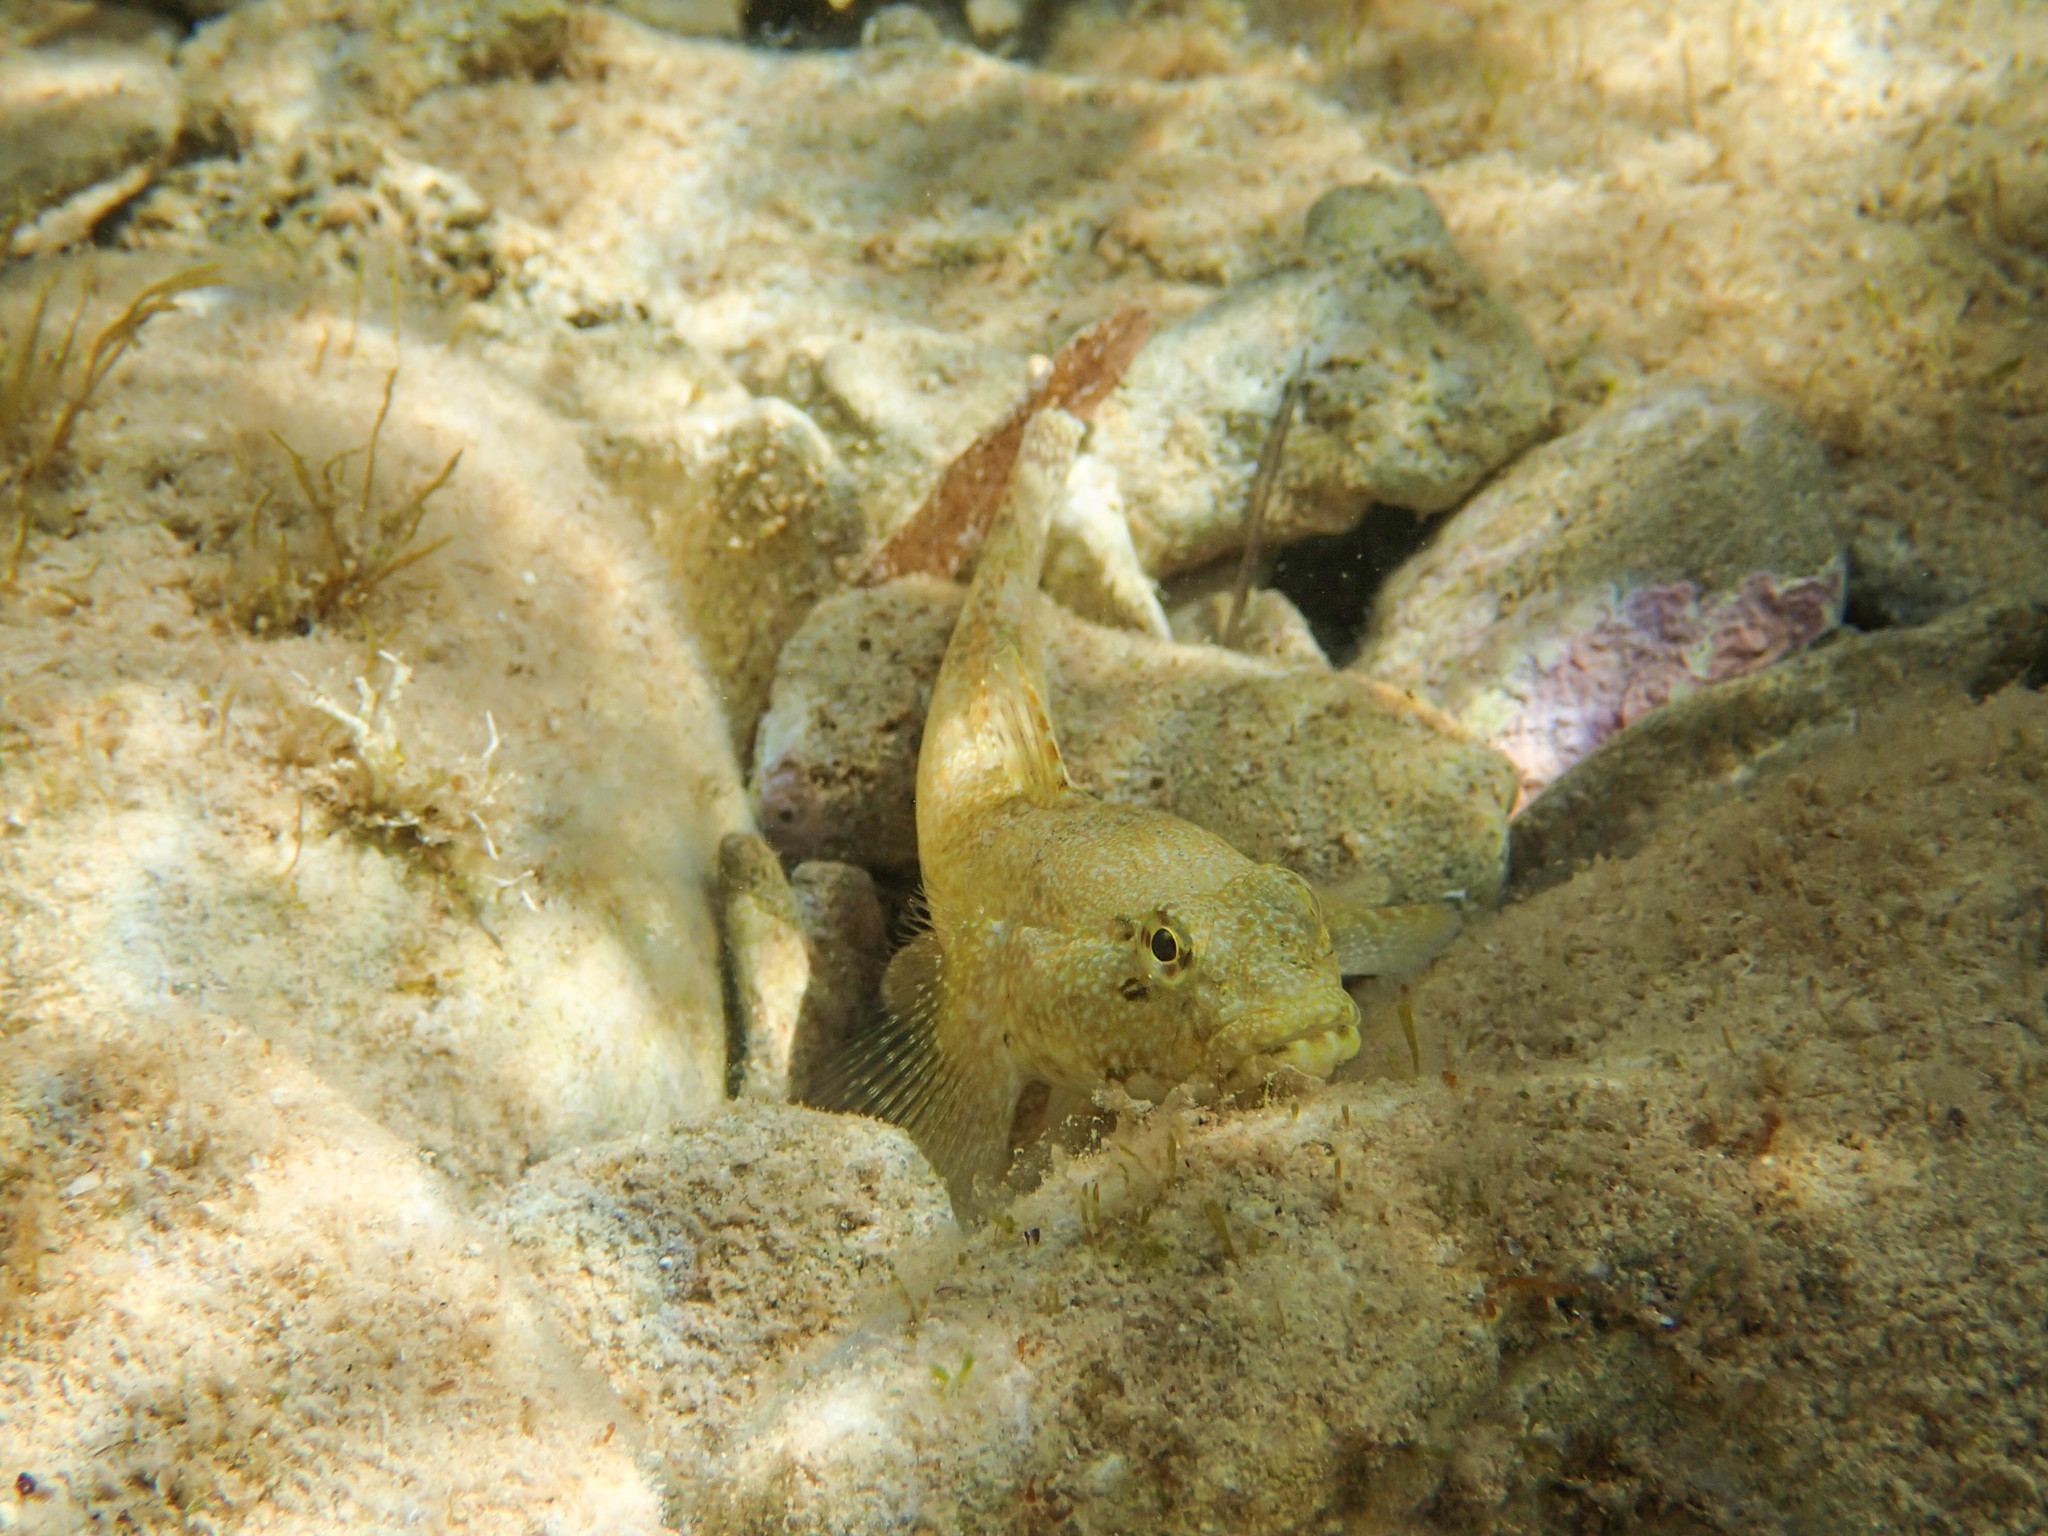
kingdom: Animalia
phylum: Chordata
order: Perciformes
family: Gobiidae
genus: Gobius
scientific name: Gobius cobitis
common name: Giant goby
